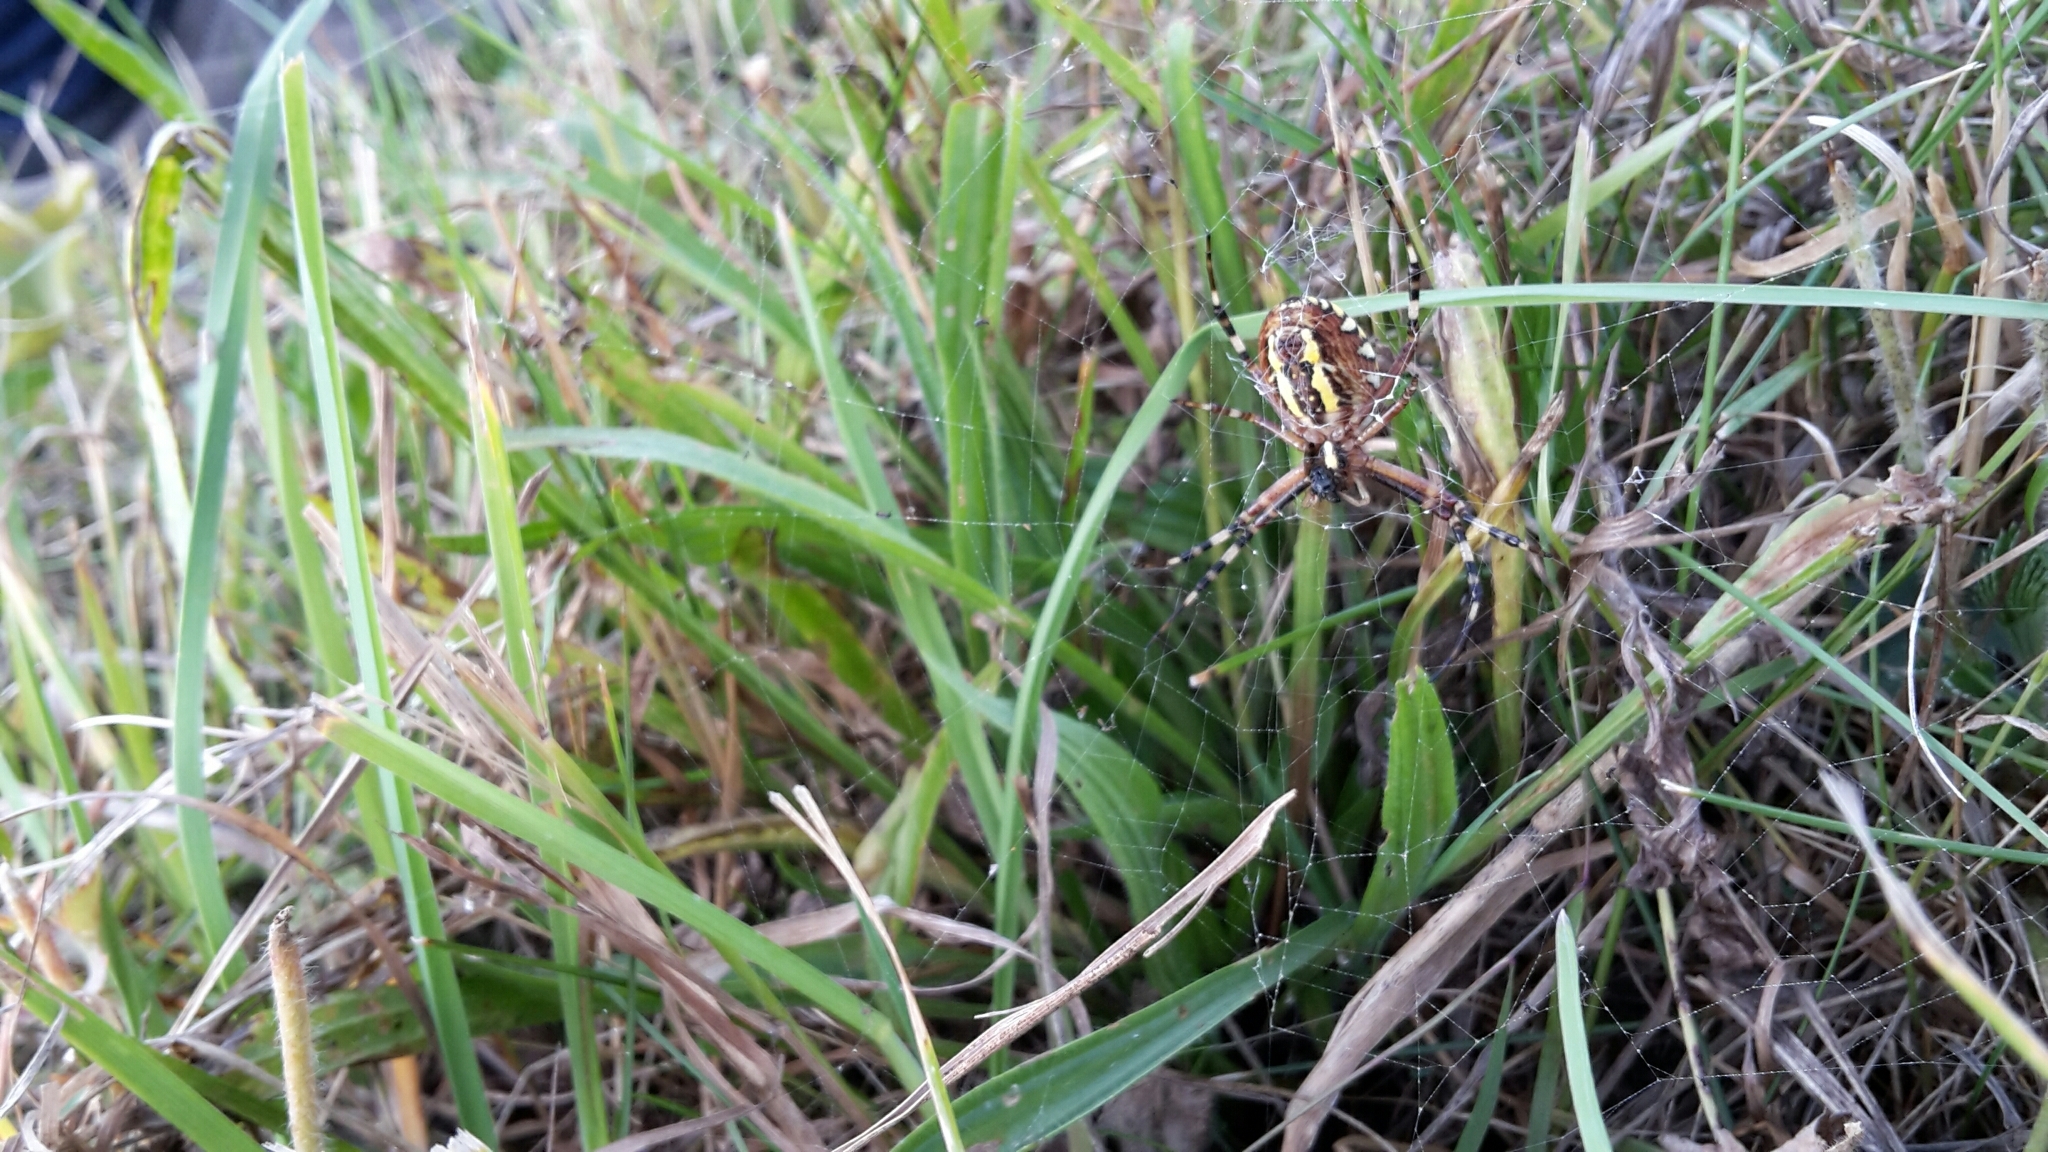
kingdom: Animalia
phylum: Arthropoda
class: Arachnida
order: Araneae
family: Araneidae
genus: Argiope
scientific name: Argiope bruennichi
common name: Wasp spider
